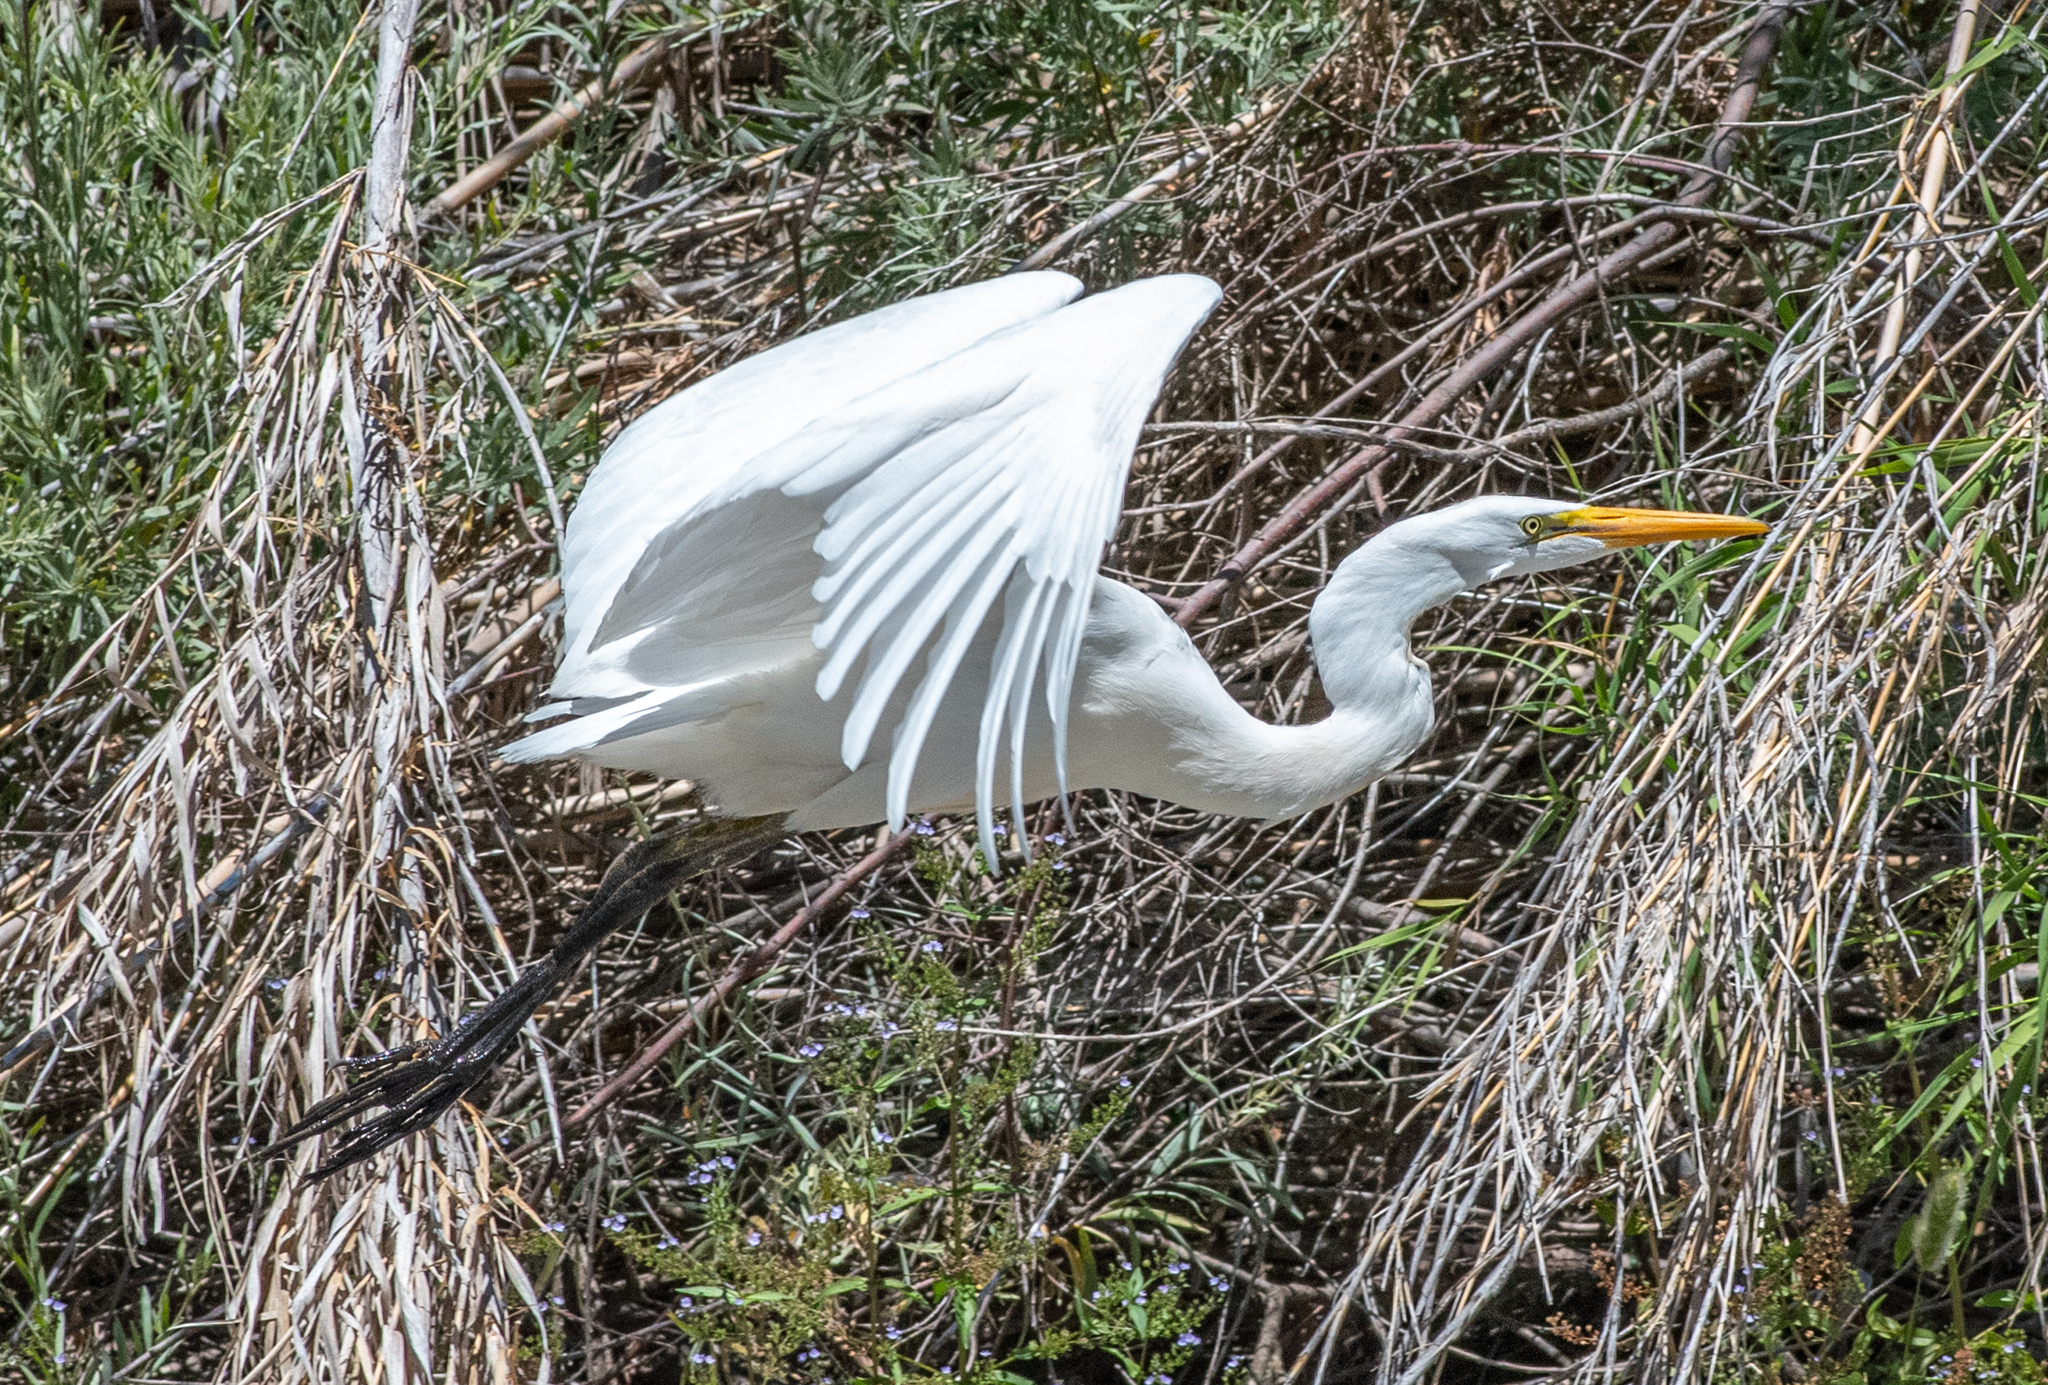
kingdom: Animalia
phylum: Chordata
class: Aves
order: Pelecaniformes
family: Ardeidae
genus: Ardea
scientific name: Ardea alba
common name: Great egret
